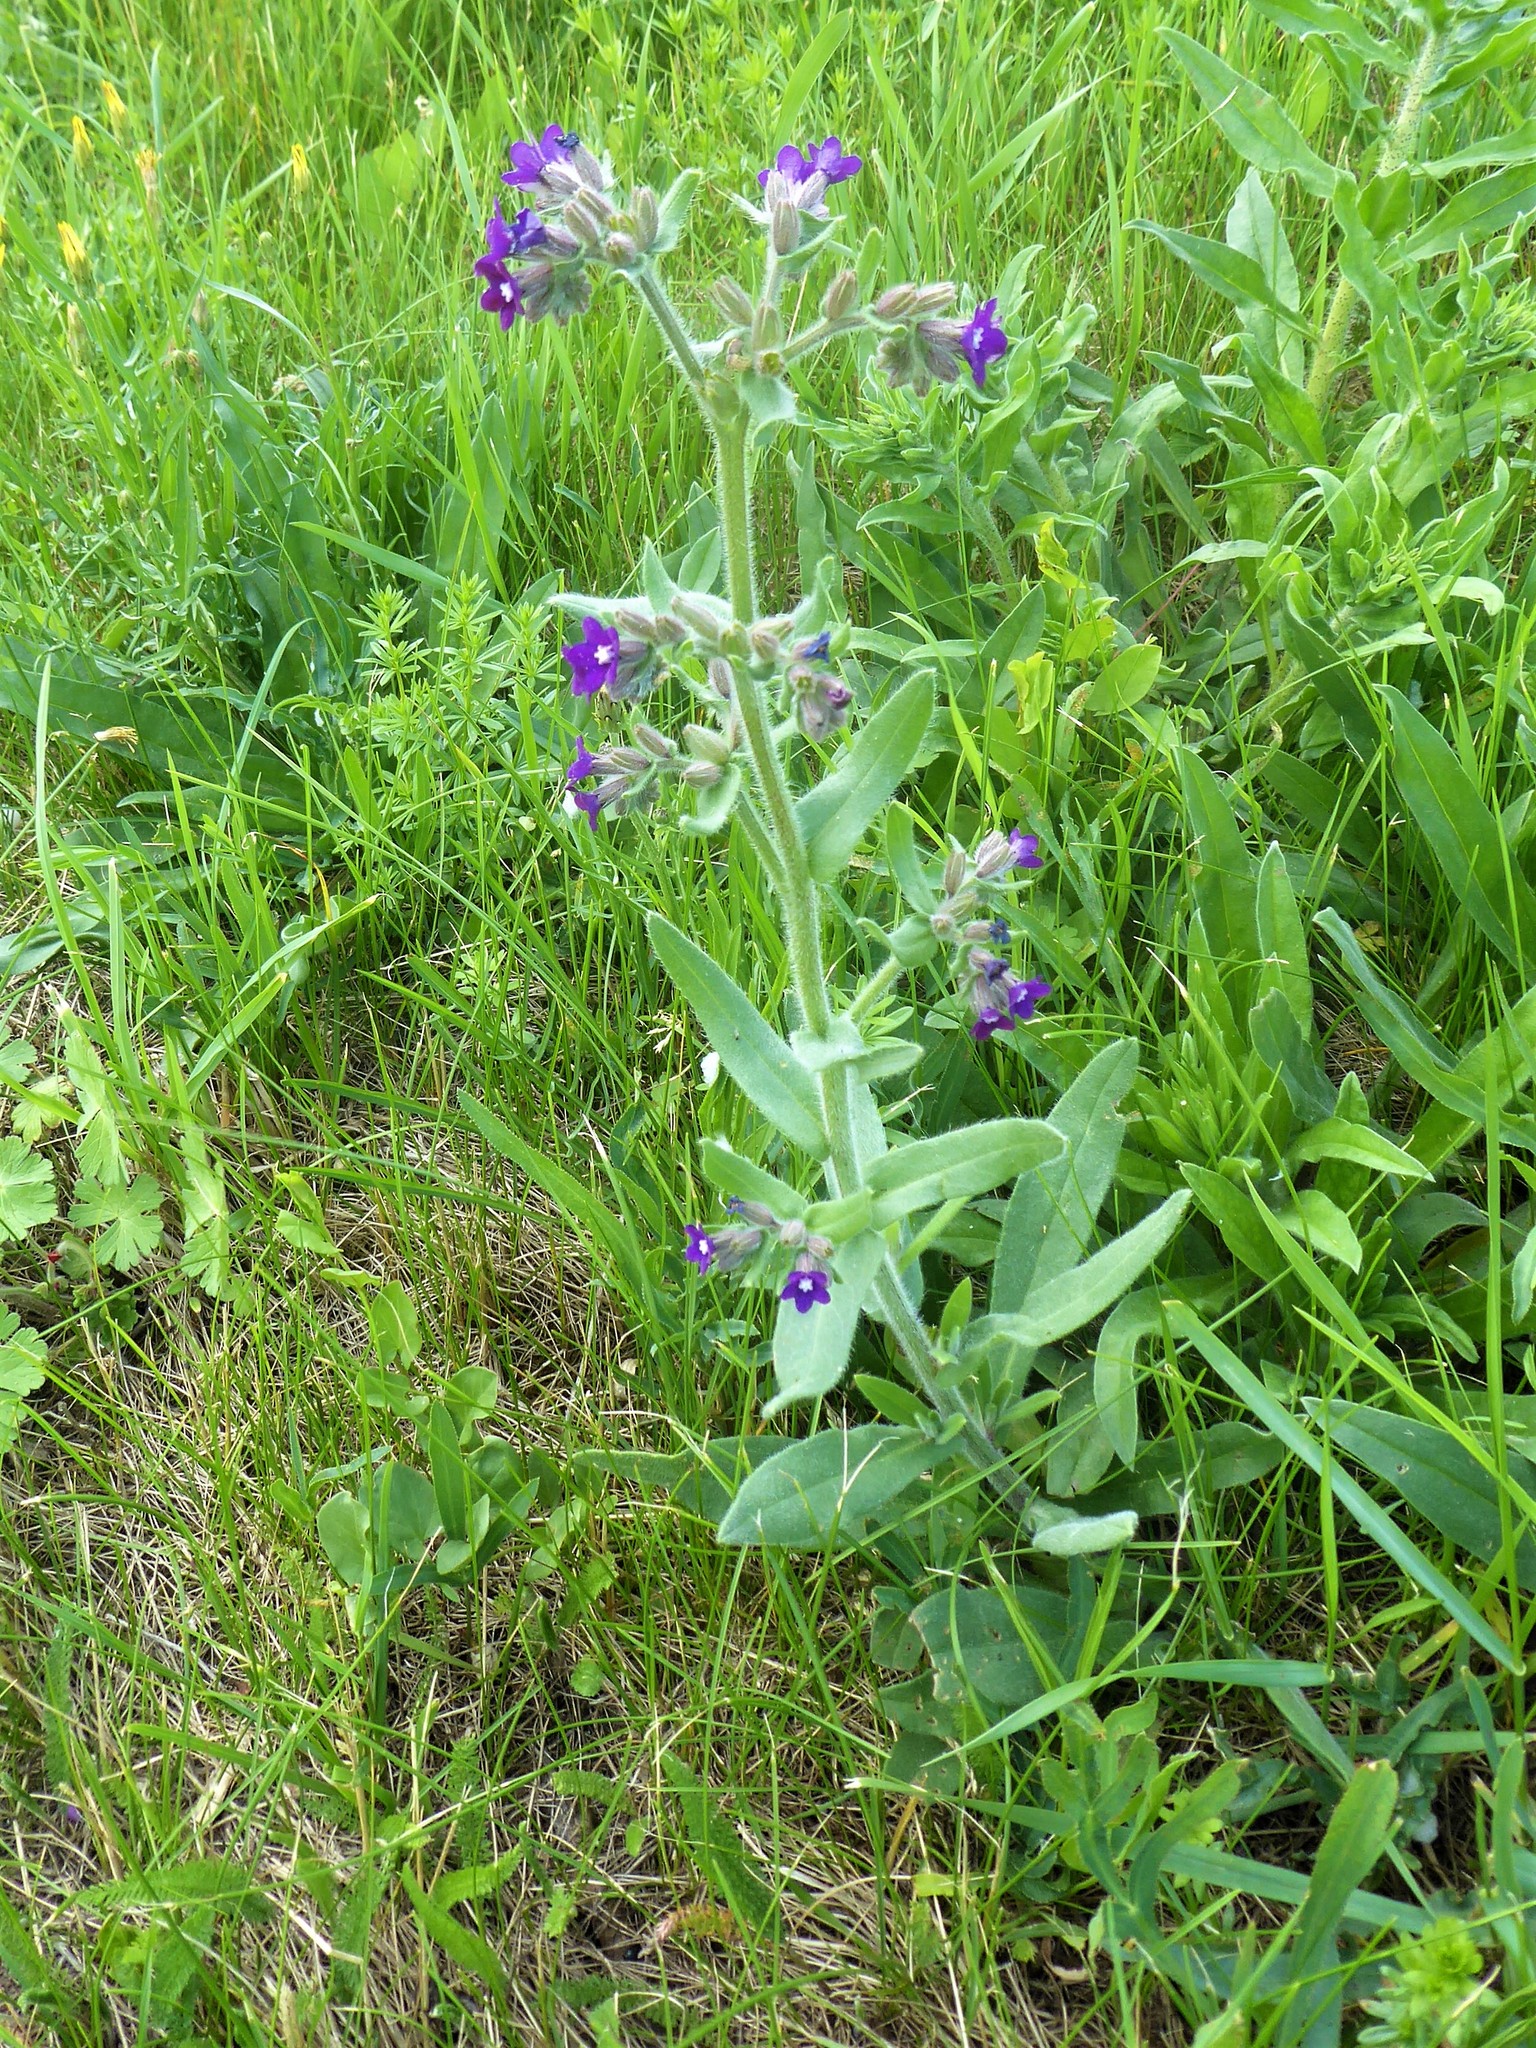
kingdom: Plantae
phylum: Tracheophyta
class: Magnoliopsida
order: Boraginales
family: Boraginaceae
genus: Anchusa
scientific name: Anchusa officinalis
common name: Alkanet
